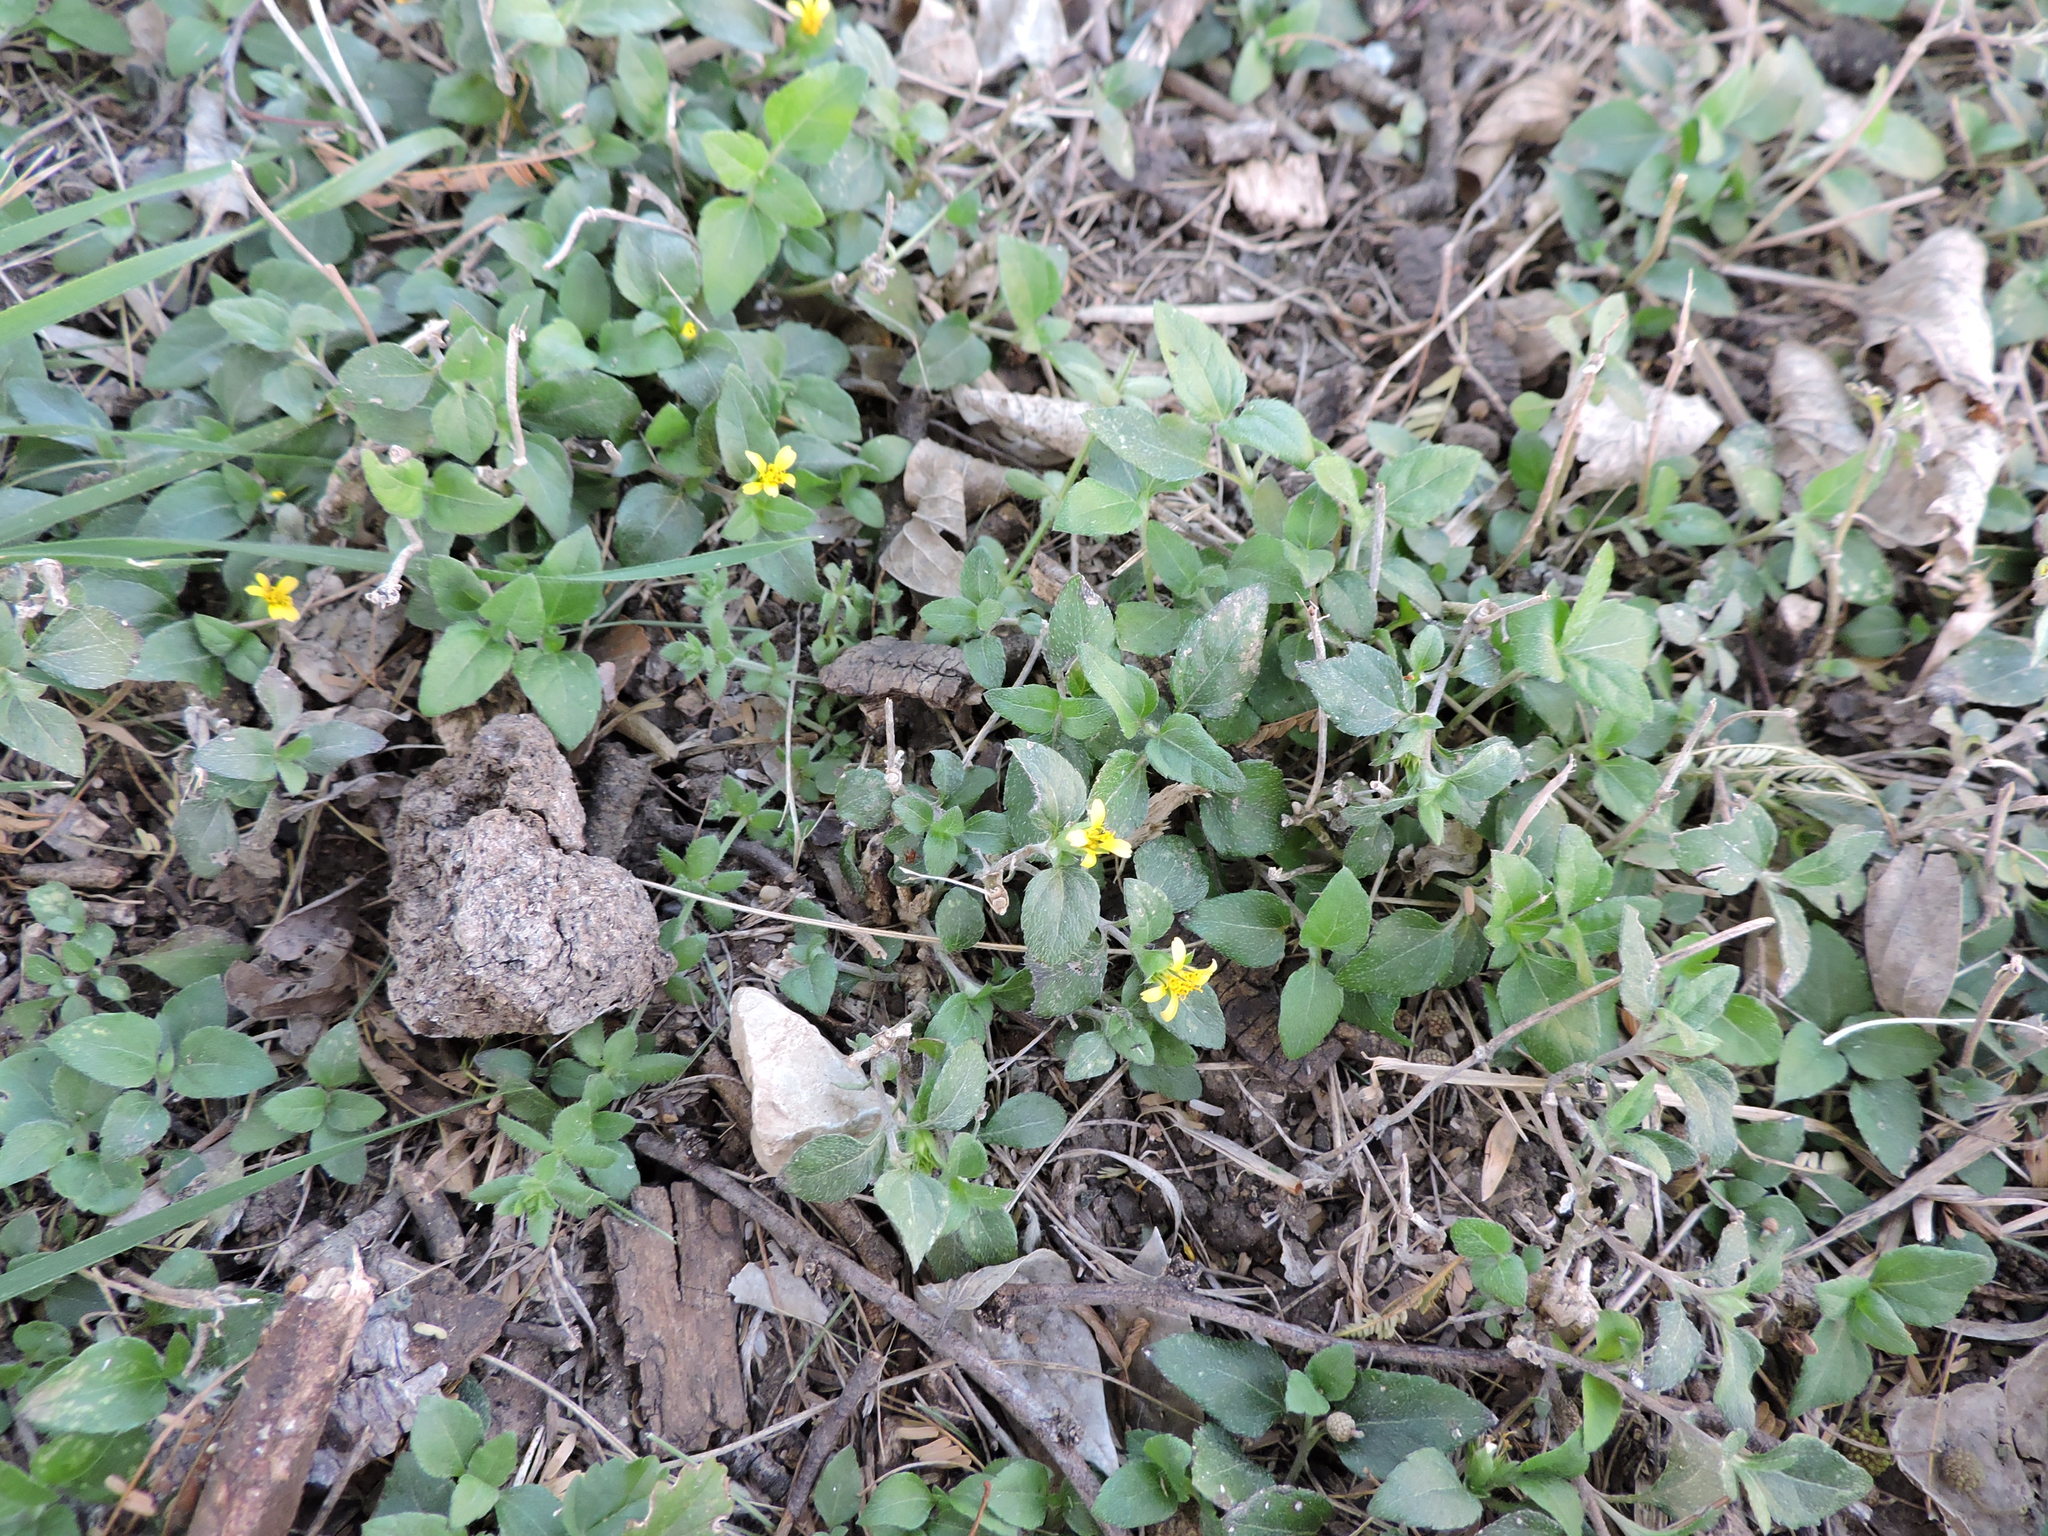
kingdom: Plantae
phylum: Tracheophyta
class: Magnoliopsida
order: Asterales
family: Asteraceae
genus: Calyptocarpus
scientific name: Calyptocarpus vialis
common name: Straggler daisy
